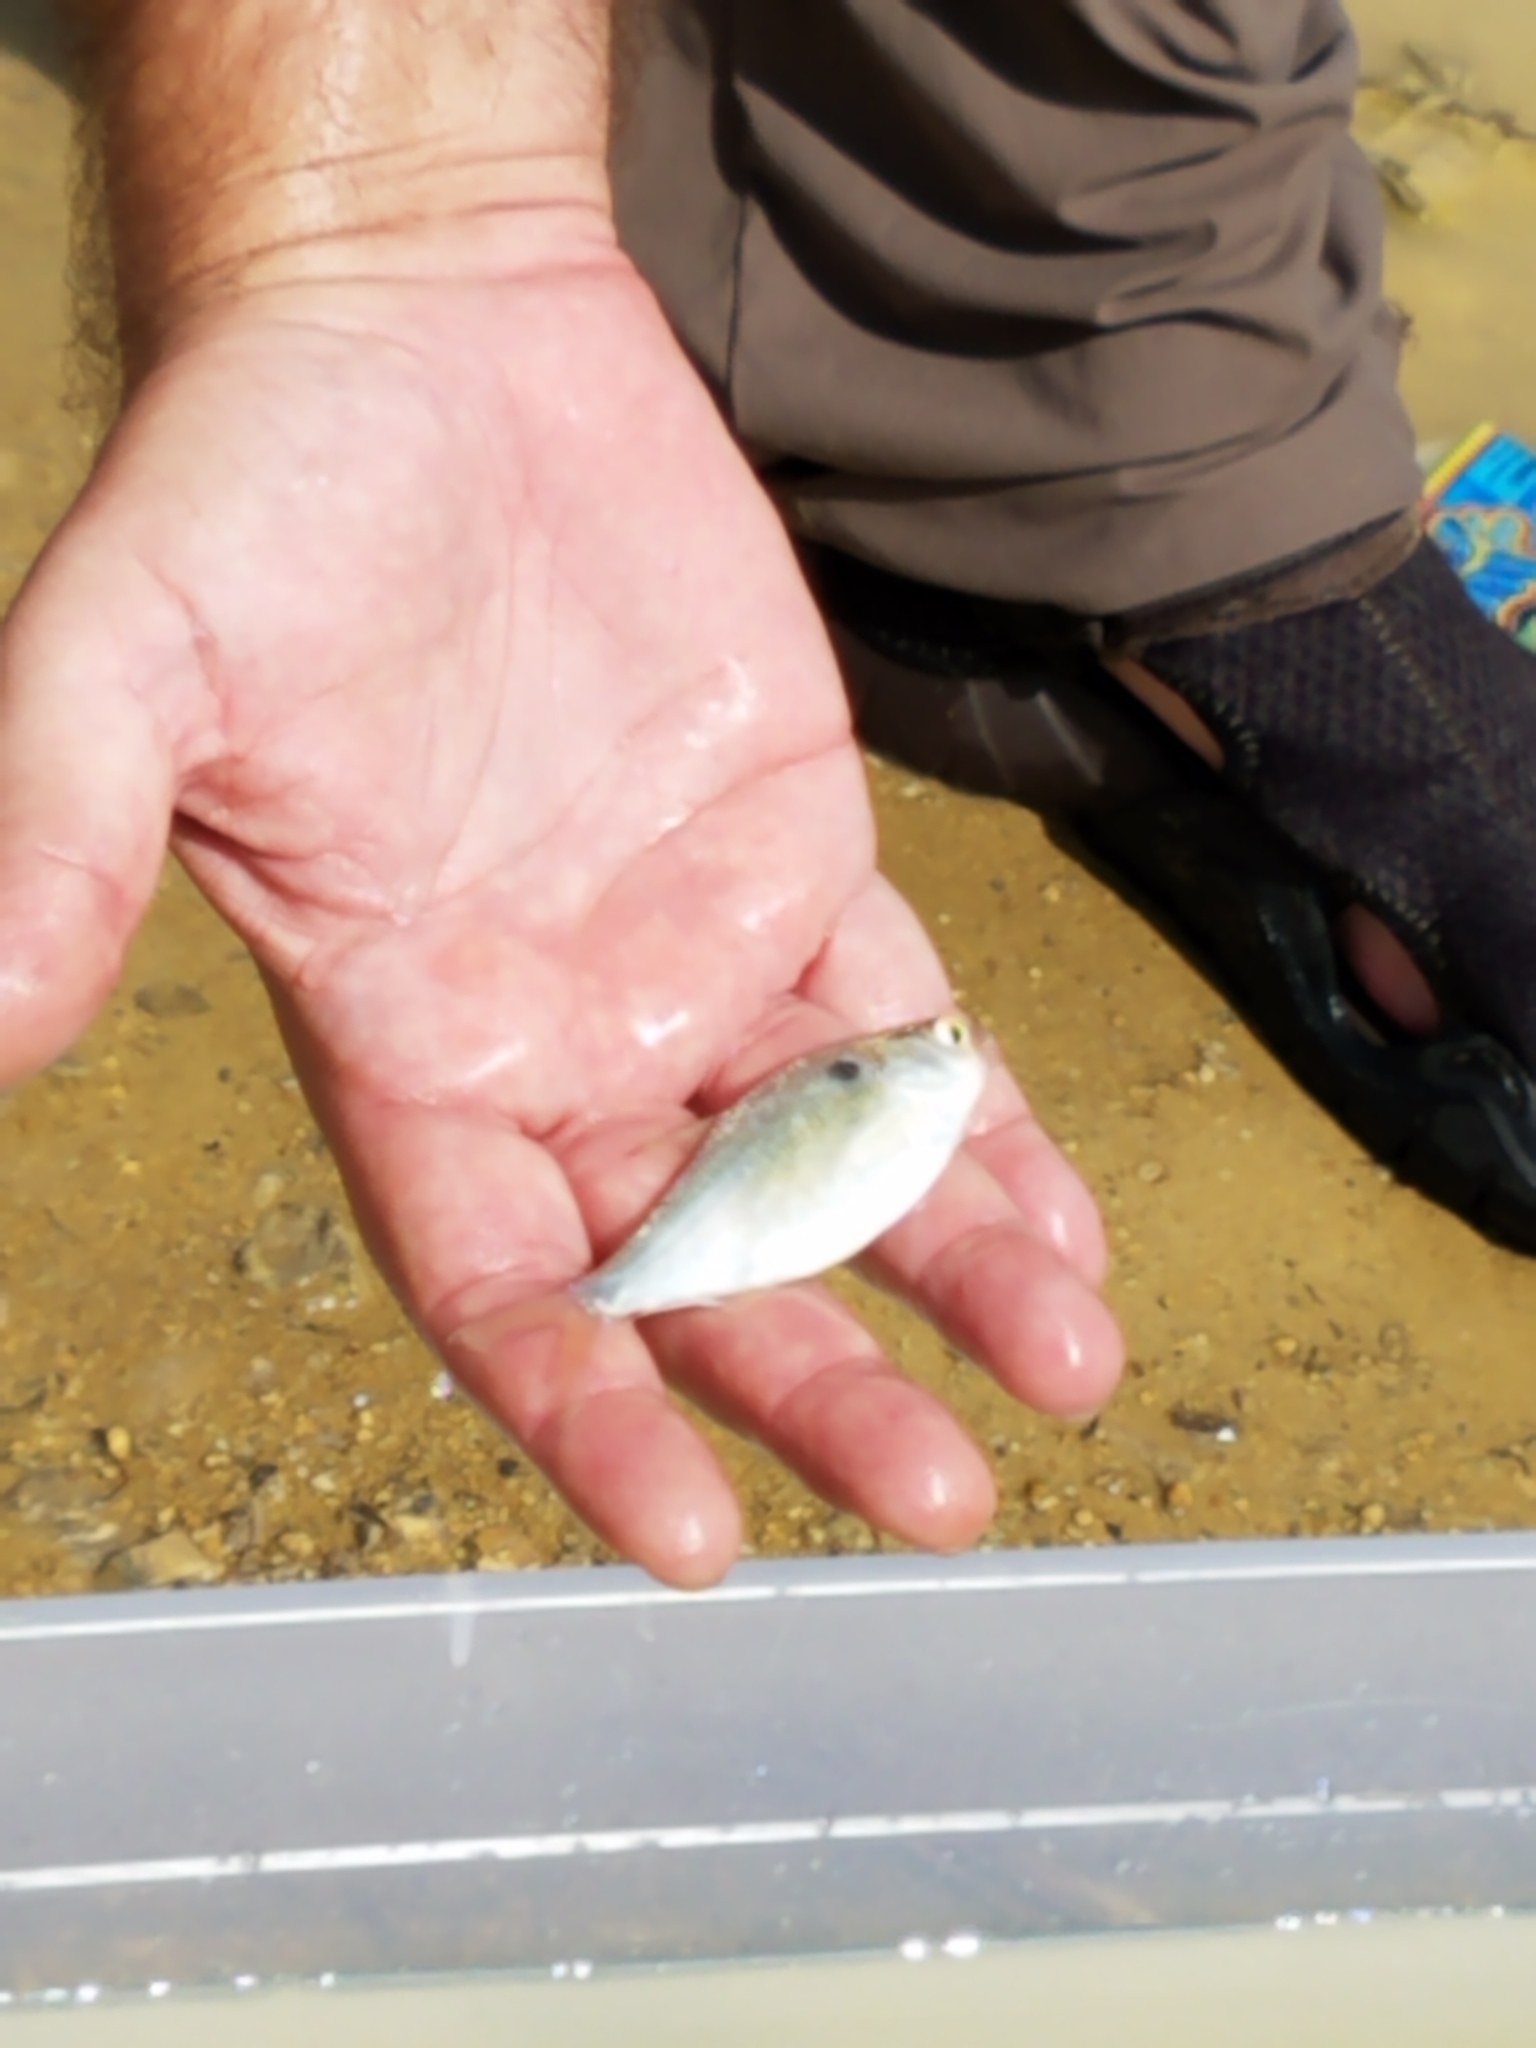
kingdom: Animalia
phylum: Chordata
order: Clupeiformes
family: Clupeidae
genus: Dorosoma
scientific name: Dorosoma cepedianum
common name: Gizzard shad
